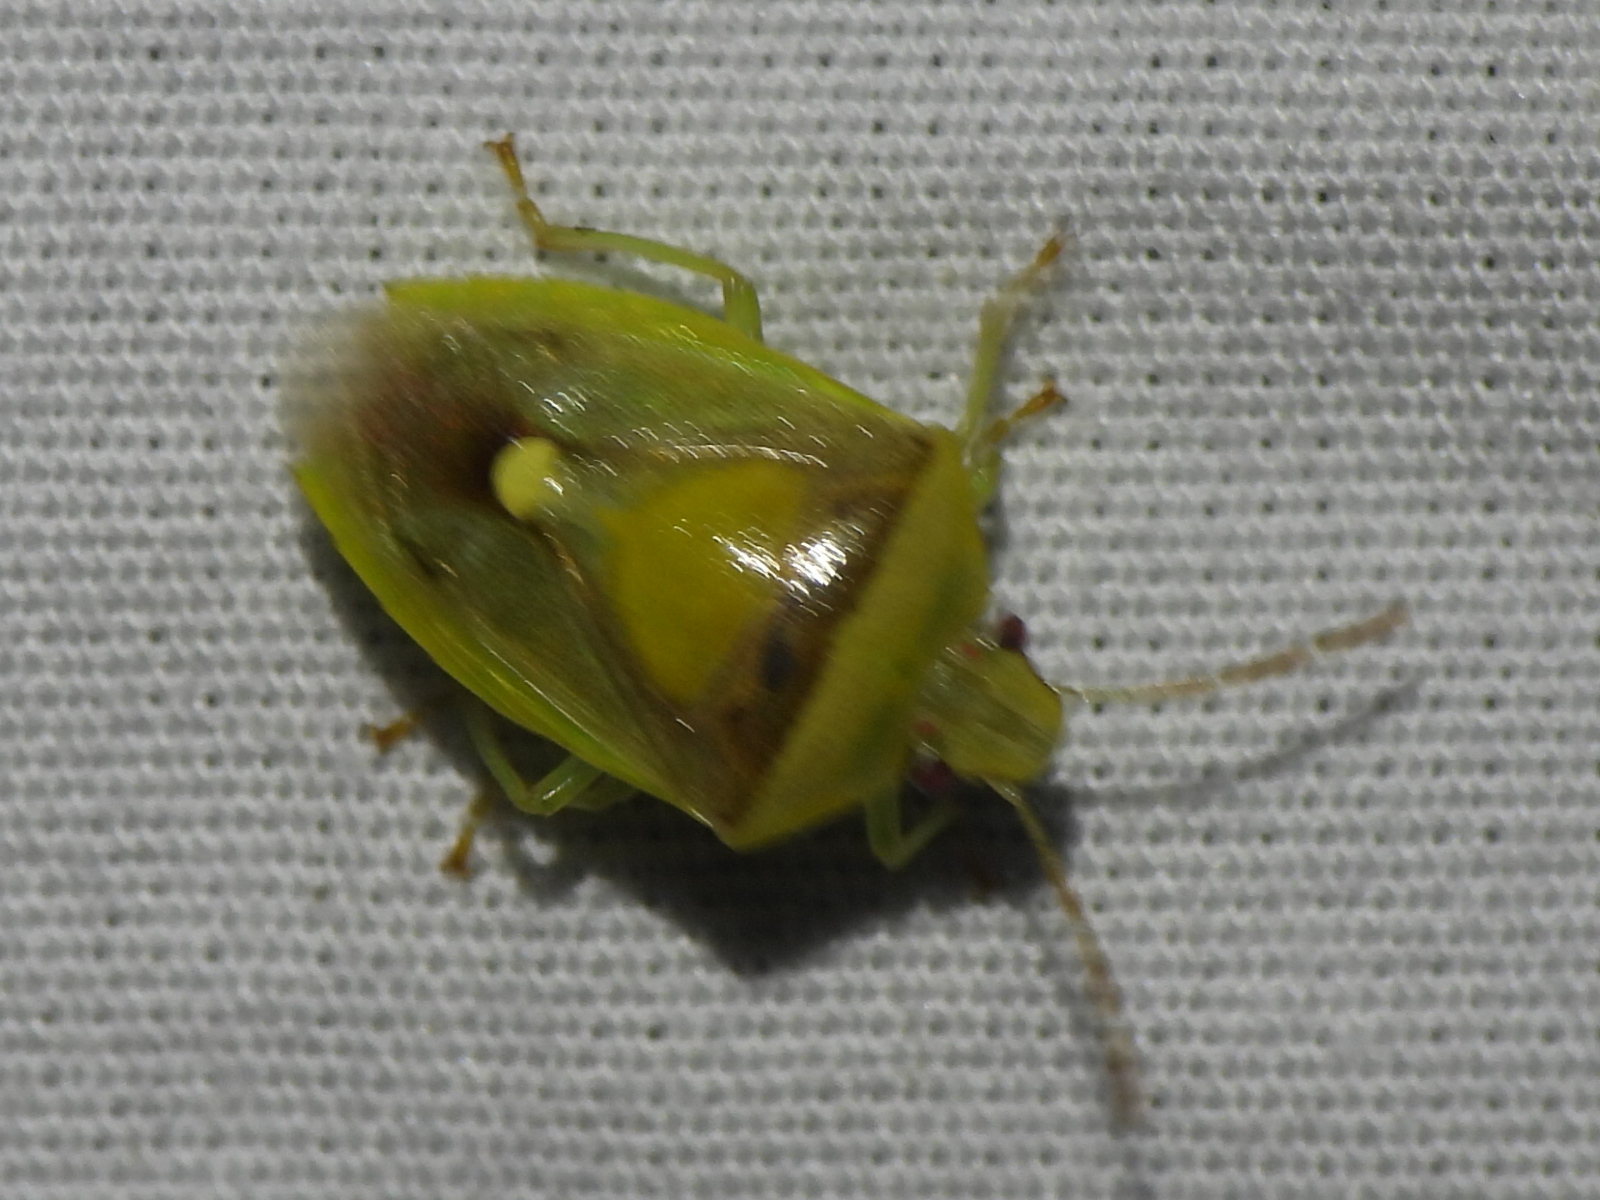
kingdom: Animalia
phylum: Arthropoda
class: Insecta
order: Hemiptera
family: Pentatomidae
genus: Banasa
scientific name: Banasa dimidiata
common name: Green burgundy stink bug
